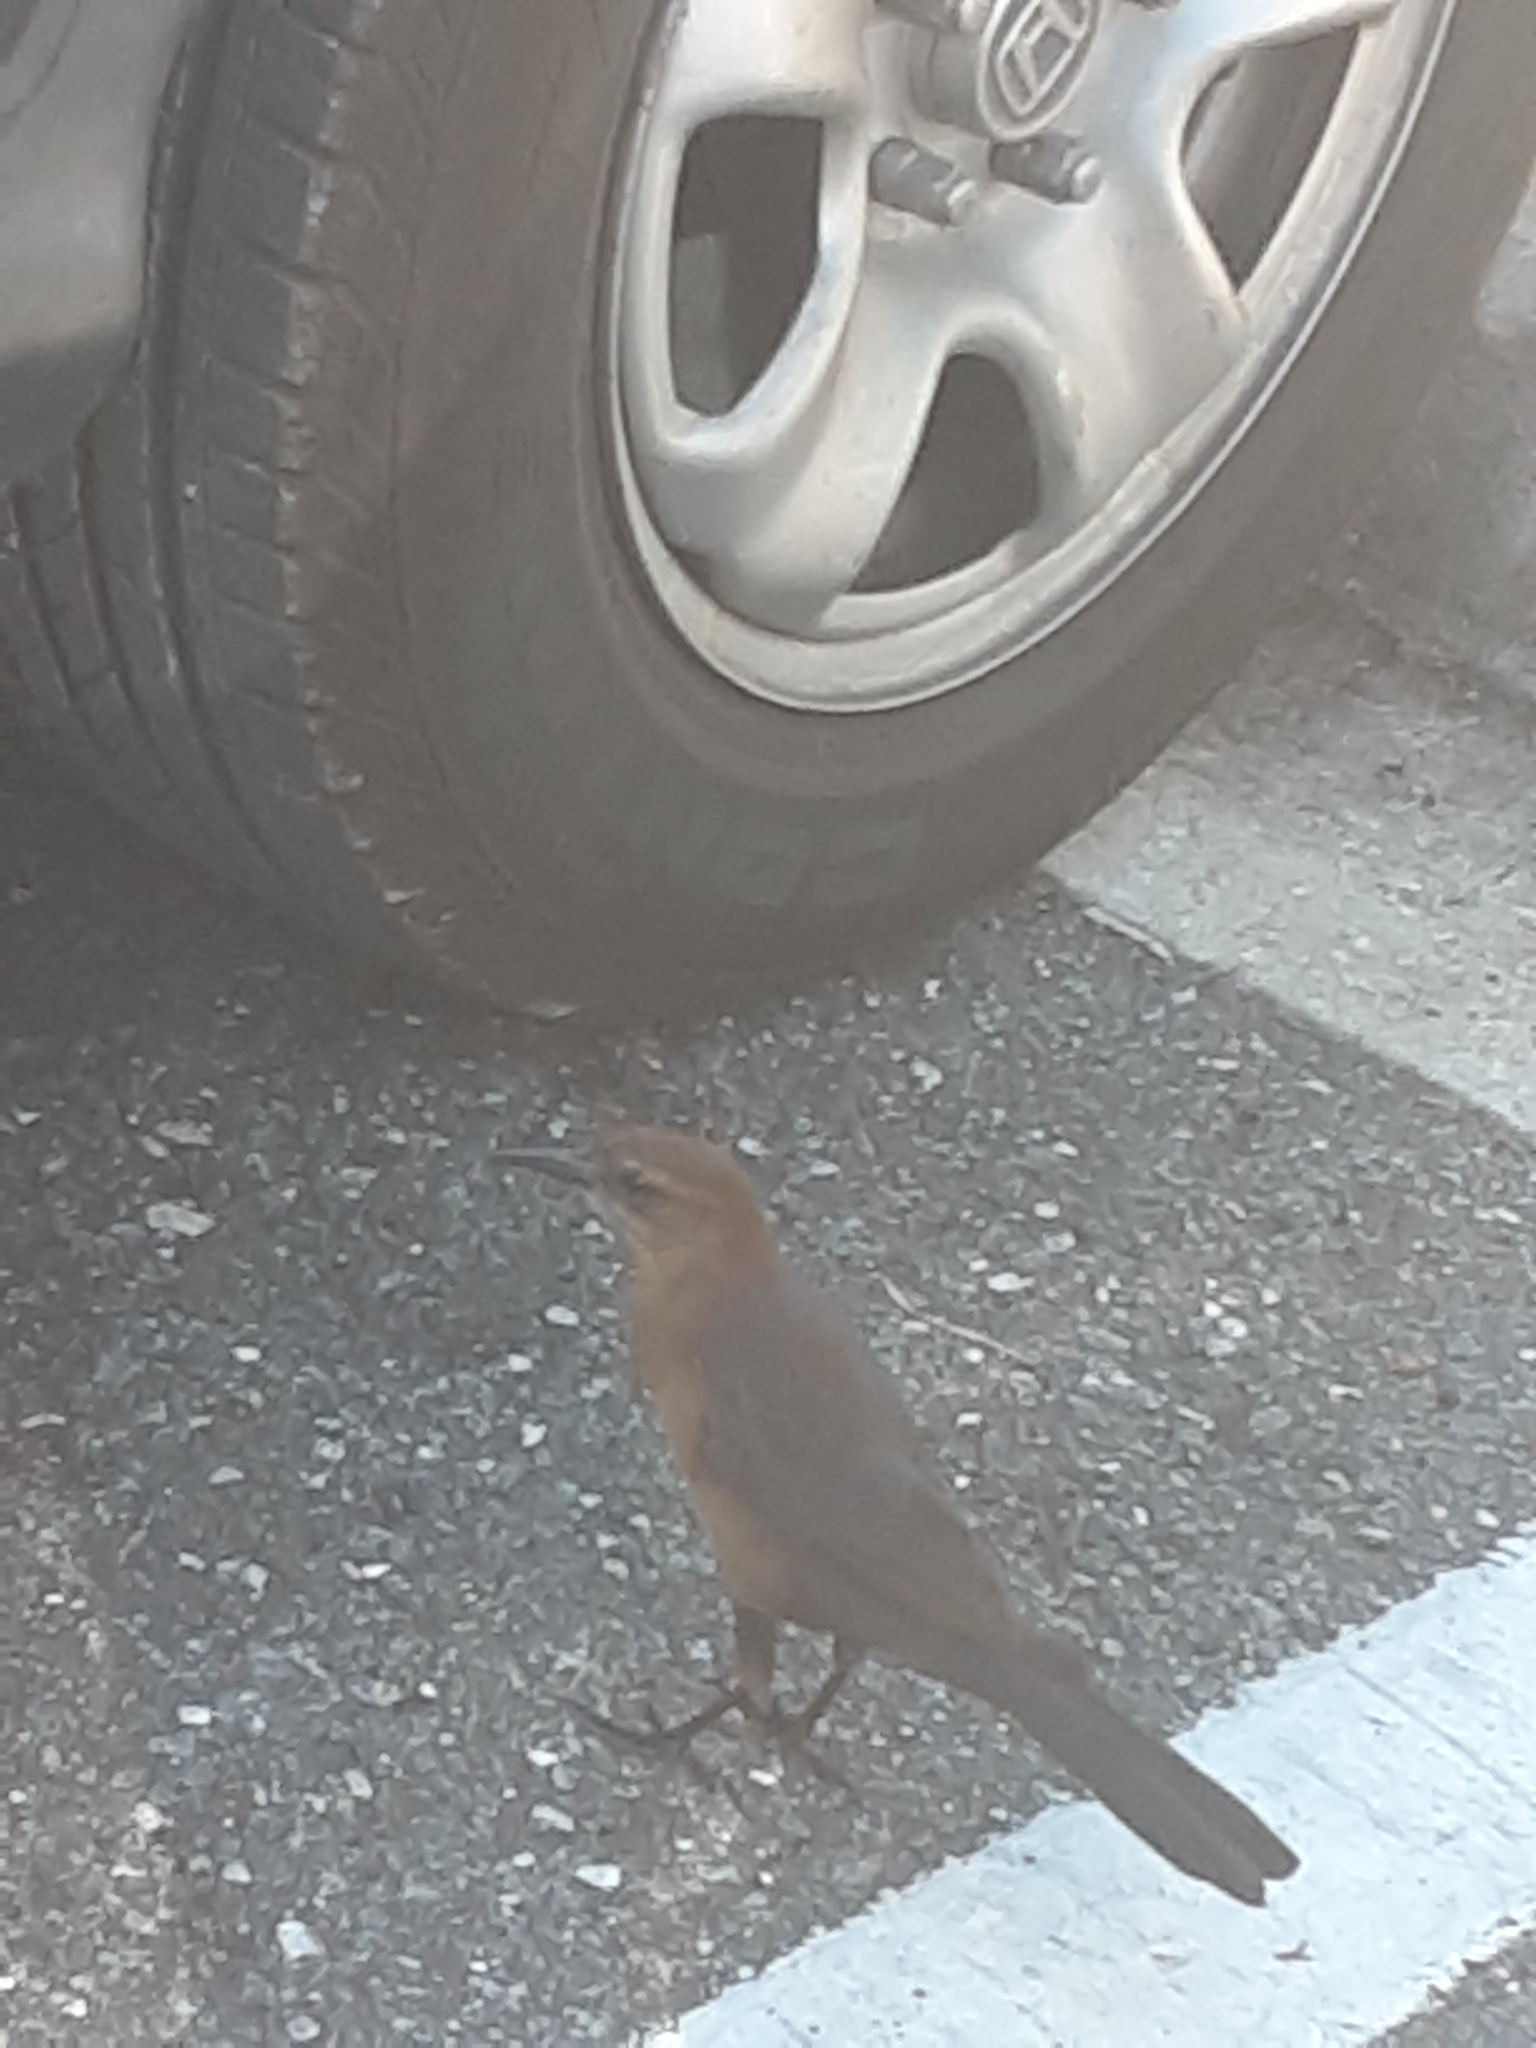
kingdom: Animalia
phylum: Chordata
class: Aves
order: Passeriformes
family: Icteridae
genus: Quiscalus
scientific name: Quiscalus major
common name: Boat-tailed grackle
